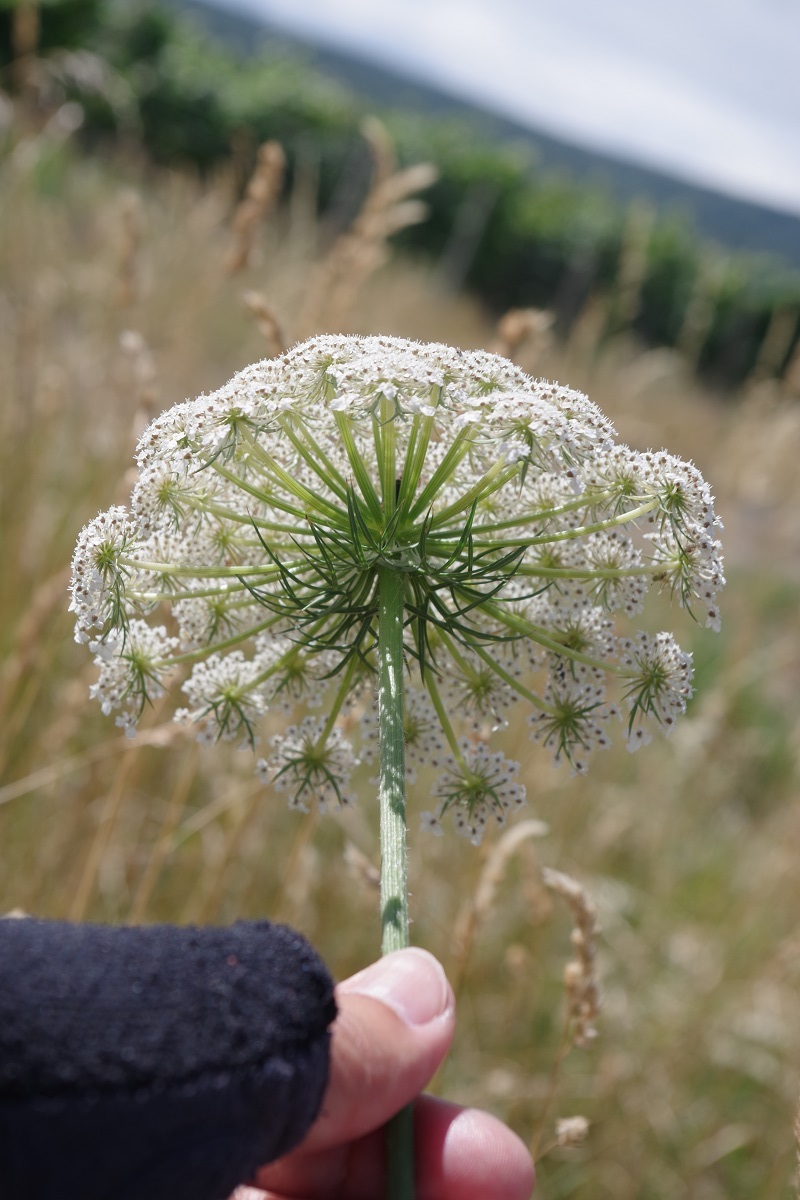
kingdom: Plantae
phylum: Tracheophyta
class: Magnoliopsida
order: Apiales
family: Apiaceae
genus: Daucus
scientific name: Daucus carota
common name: Wild carrot
